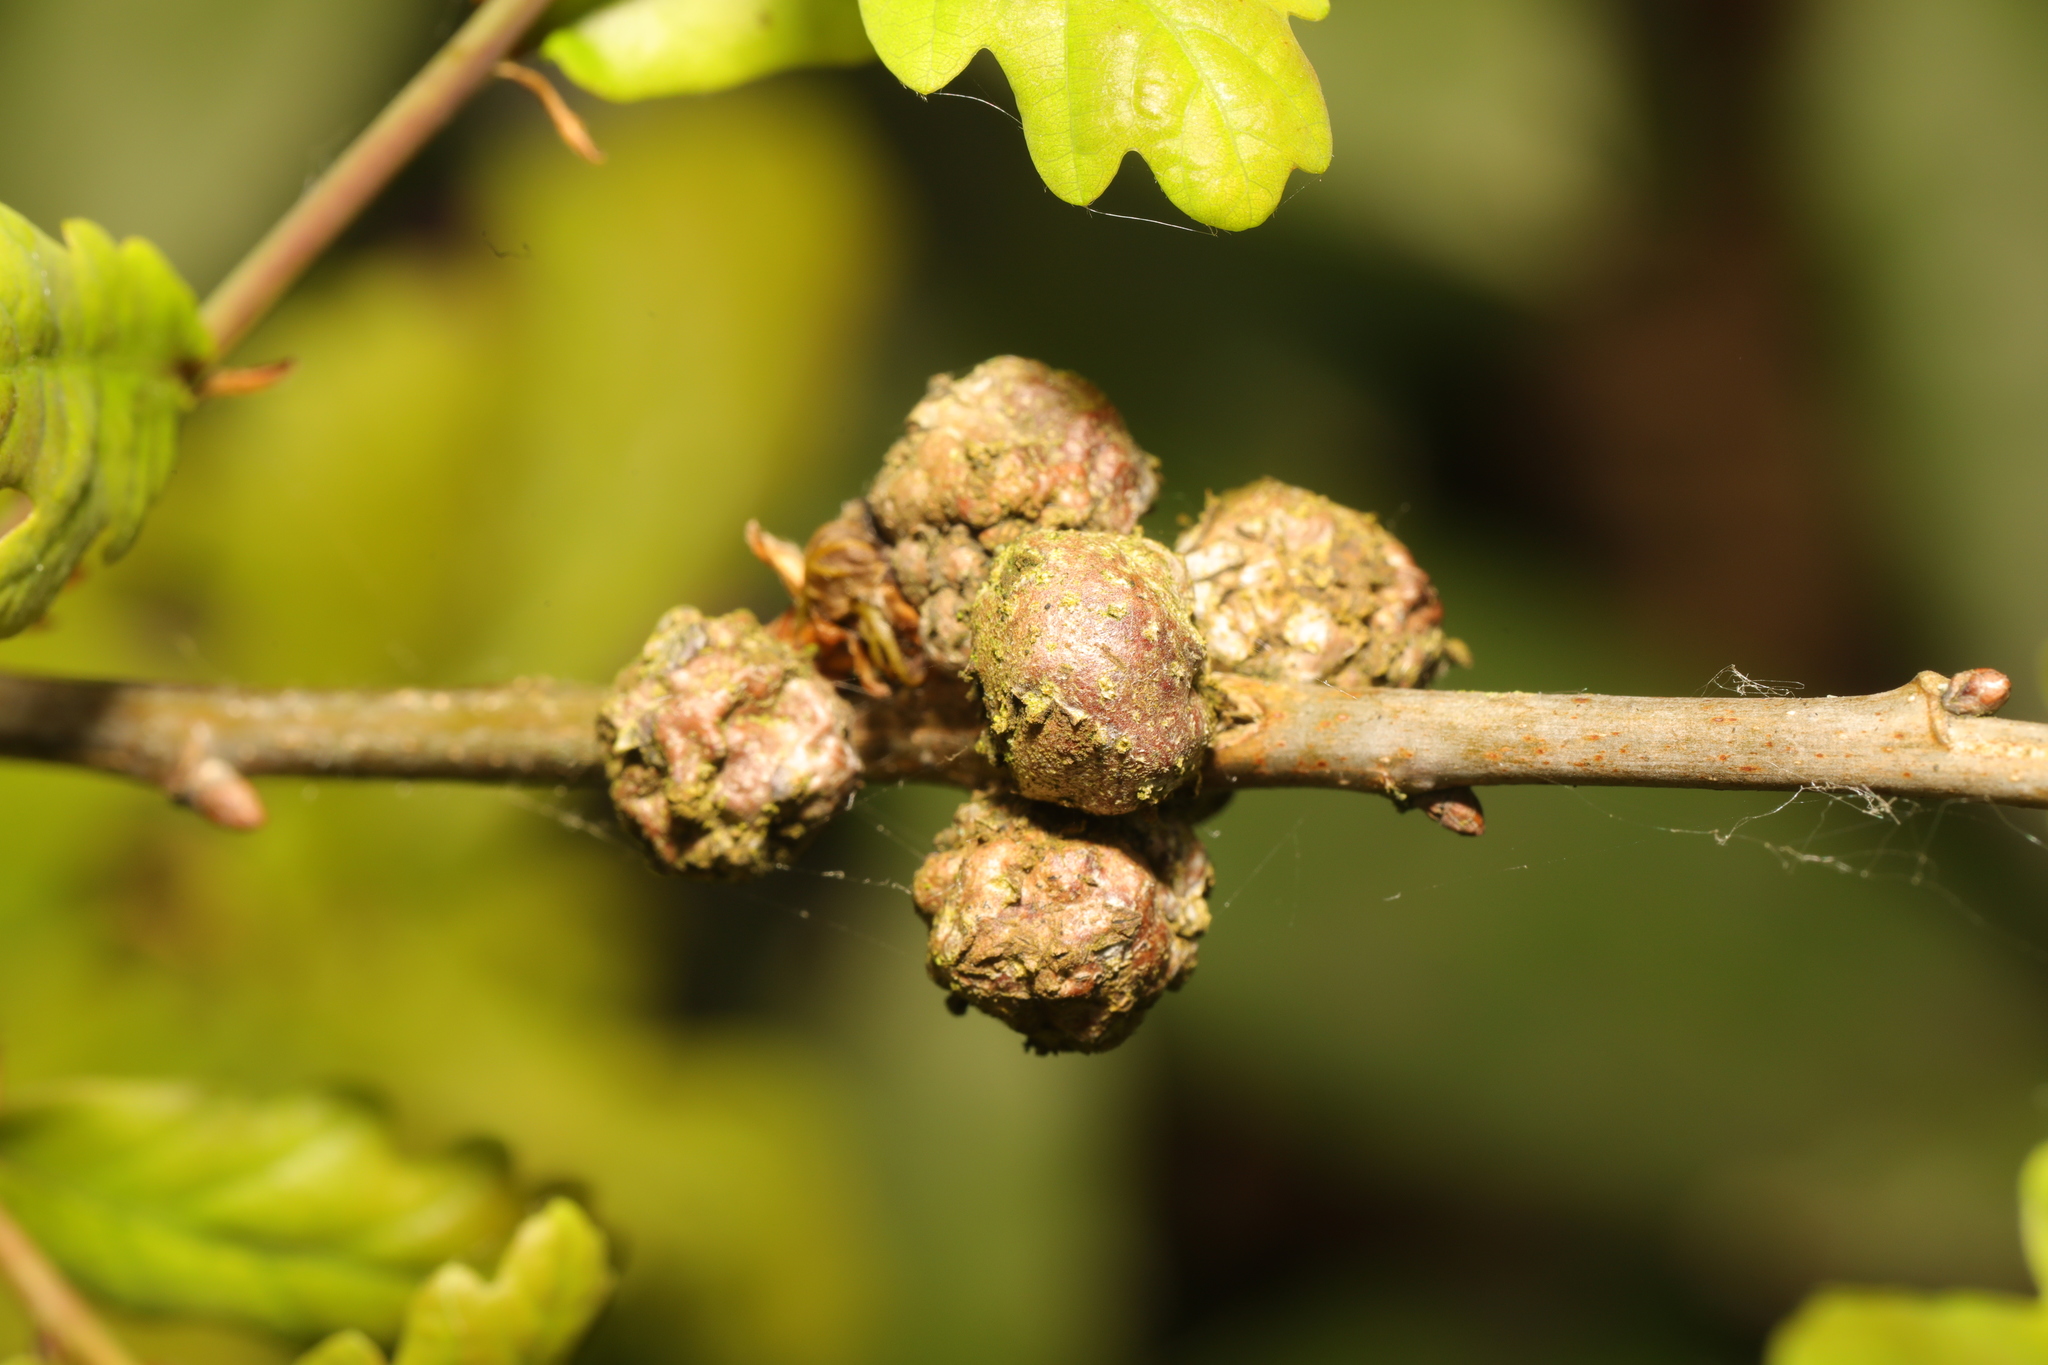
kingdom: Animalia
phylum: Arthropoda
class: Insecta
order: Hymenoptera
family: Cynipidae
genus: Andricus
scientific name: Andricus lignicolus
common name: Cola-nut gall
